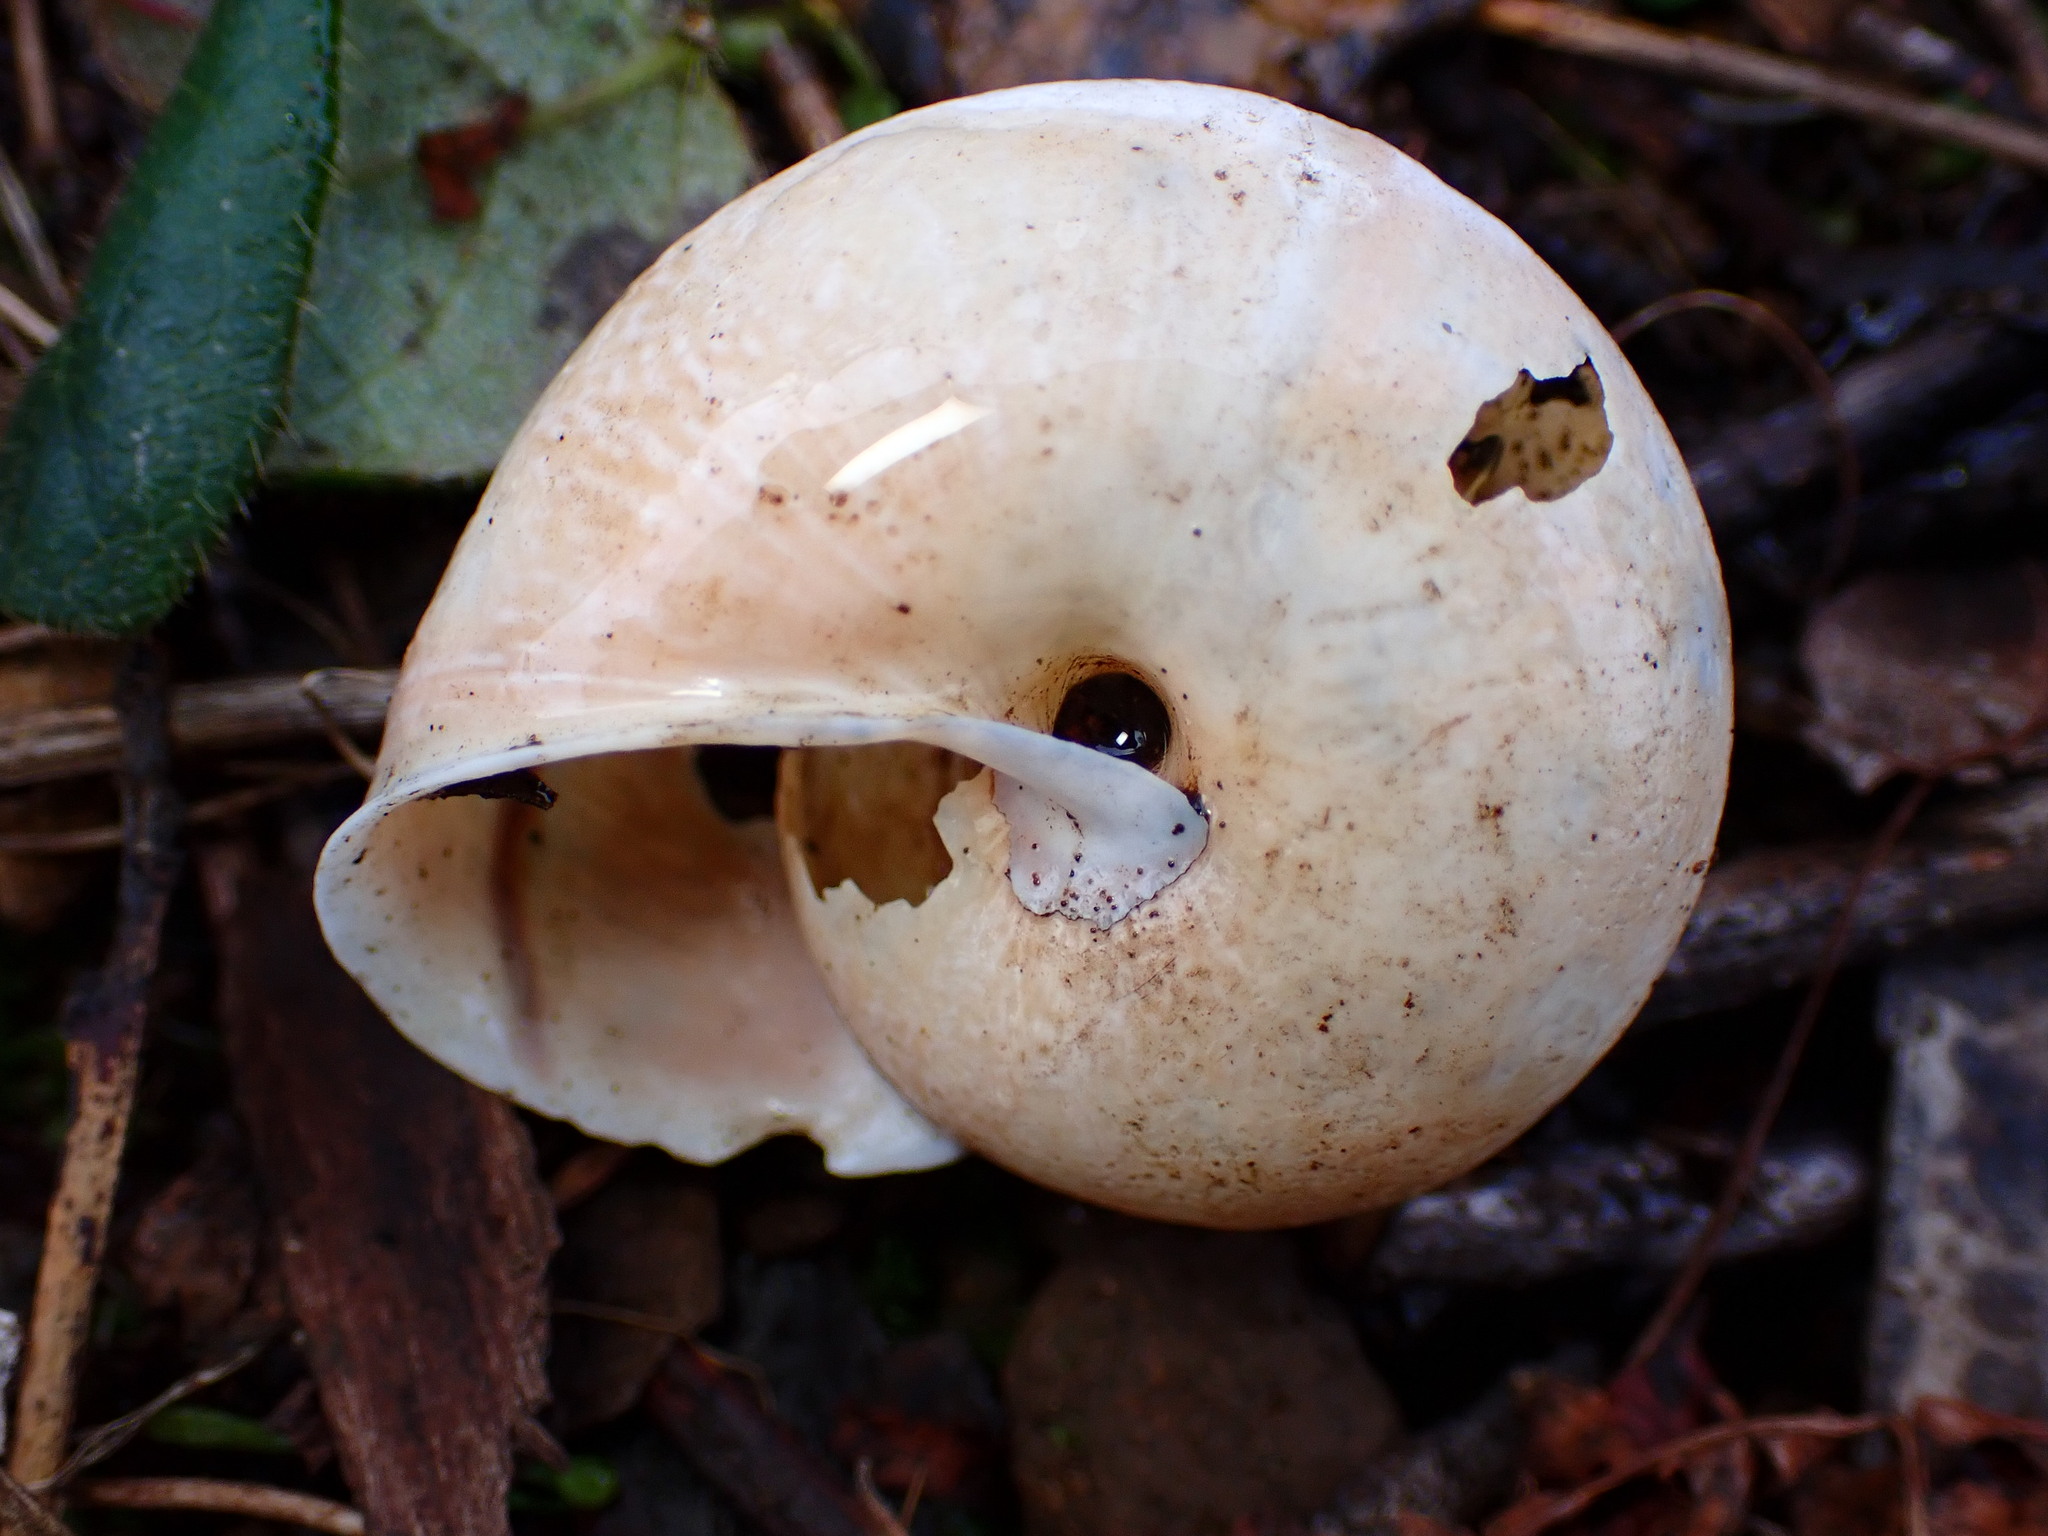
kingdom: Animalia
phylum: Mollusca
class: Gastropoda
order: Stylommatophora
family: Xanthonychidae
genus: Helminthoglypta
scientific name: Helminthoglypta arrosa
